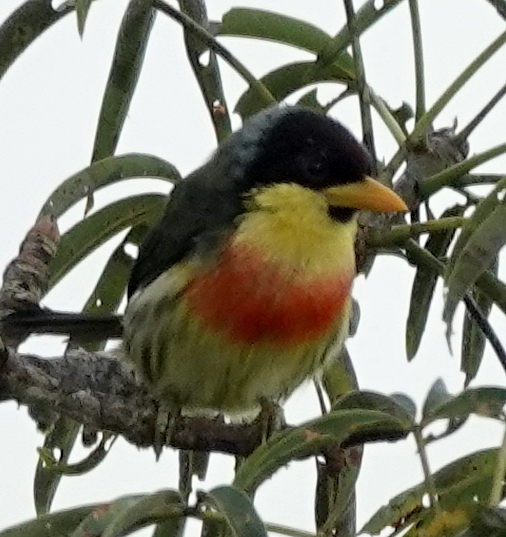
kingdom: Animalia
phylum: Chordata
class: Aves
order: Piciformes
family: Capitonidae
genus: Eubucco
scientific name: Eubucco richardsoni
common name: Lemon-throated barbet
